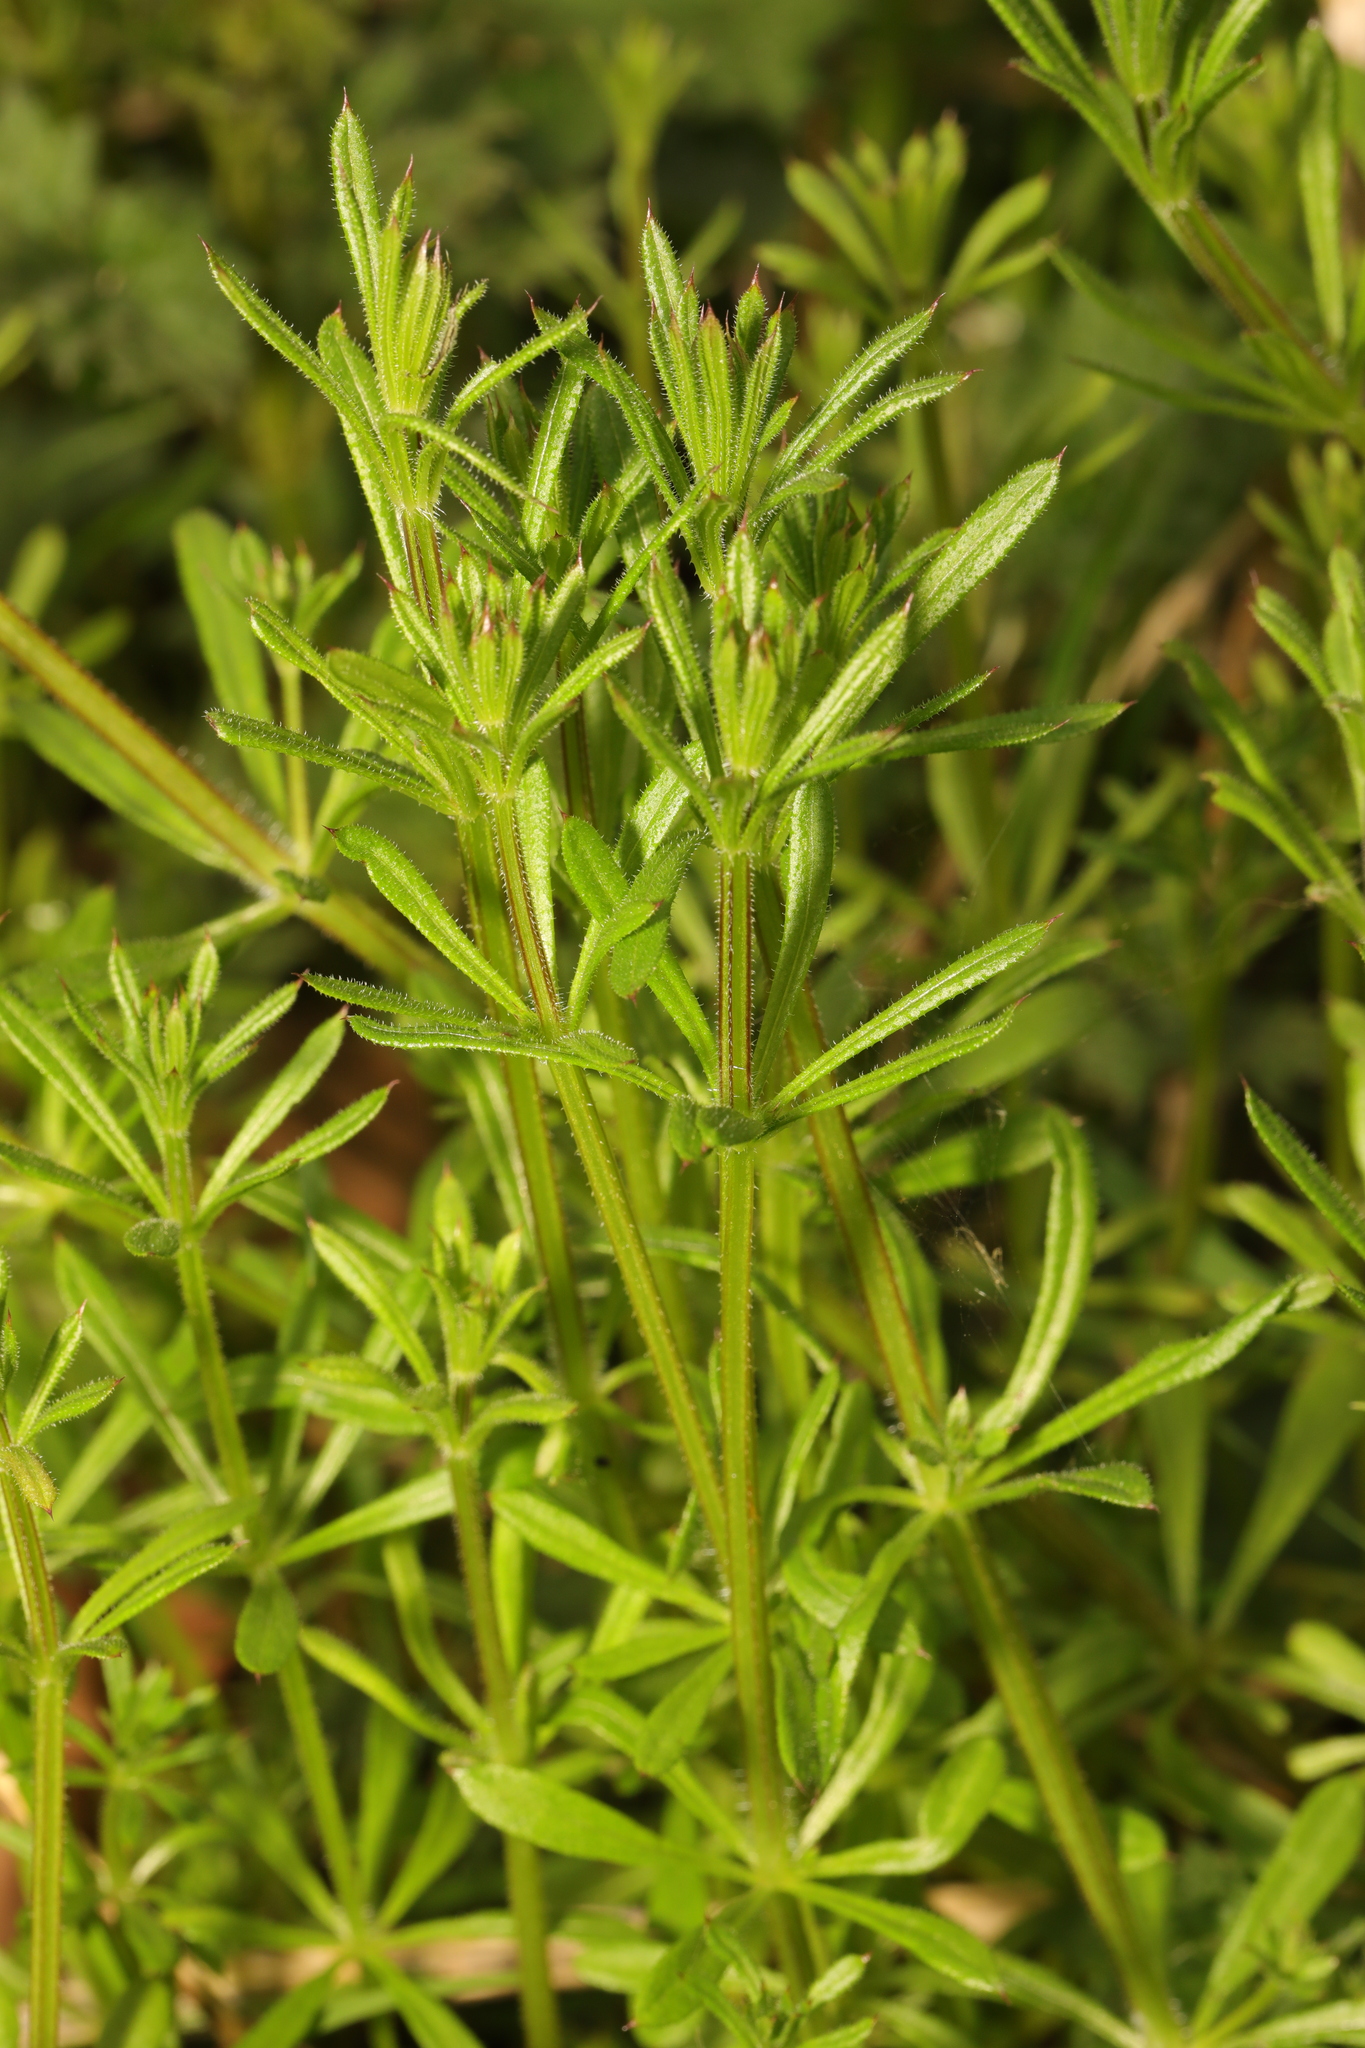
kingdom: Plantae
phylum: Tracheophyta
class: Magnoliopsida
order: Gentianales
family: Rubiaceae
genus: Galium
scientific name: Galium aparine
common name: Cleavers
